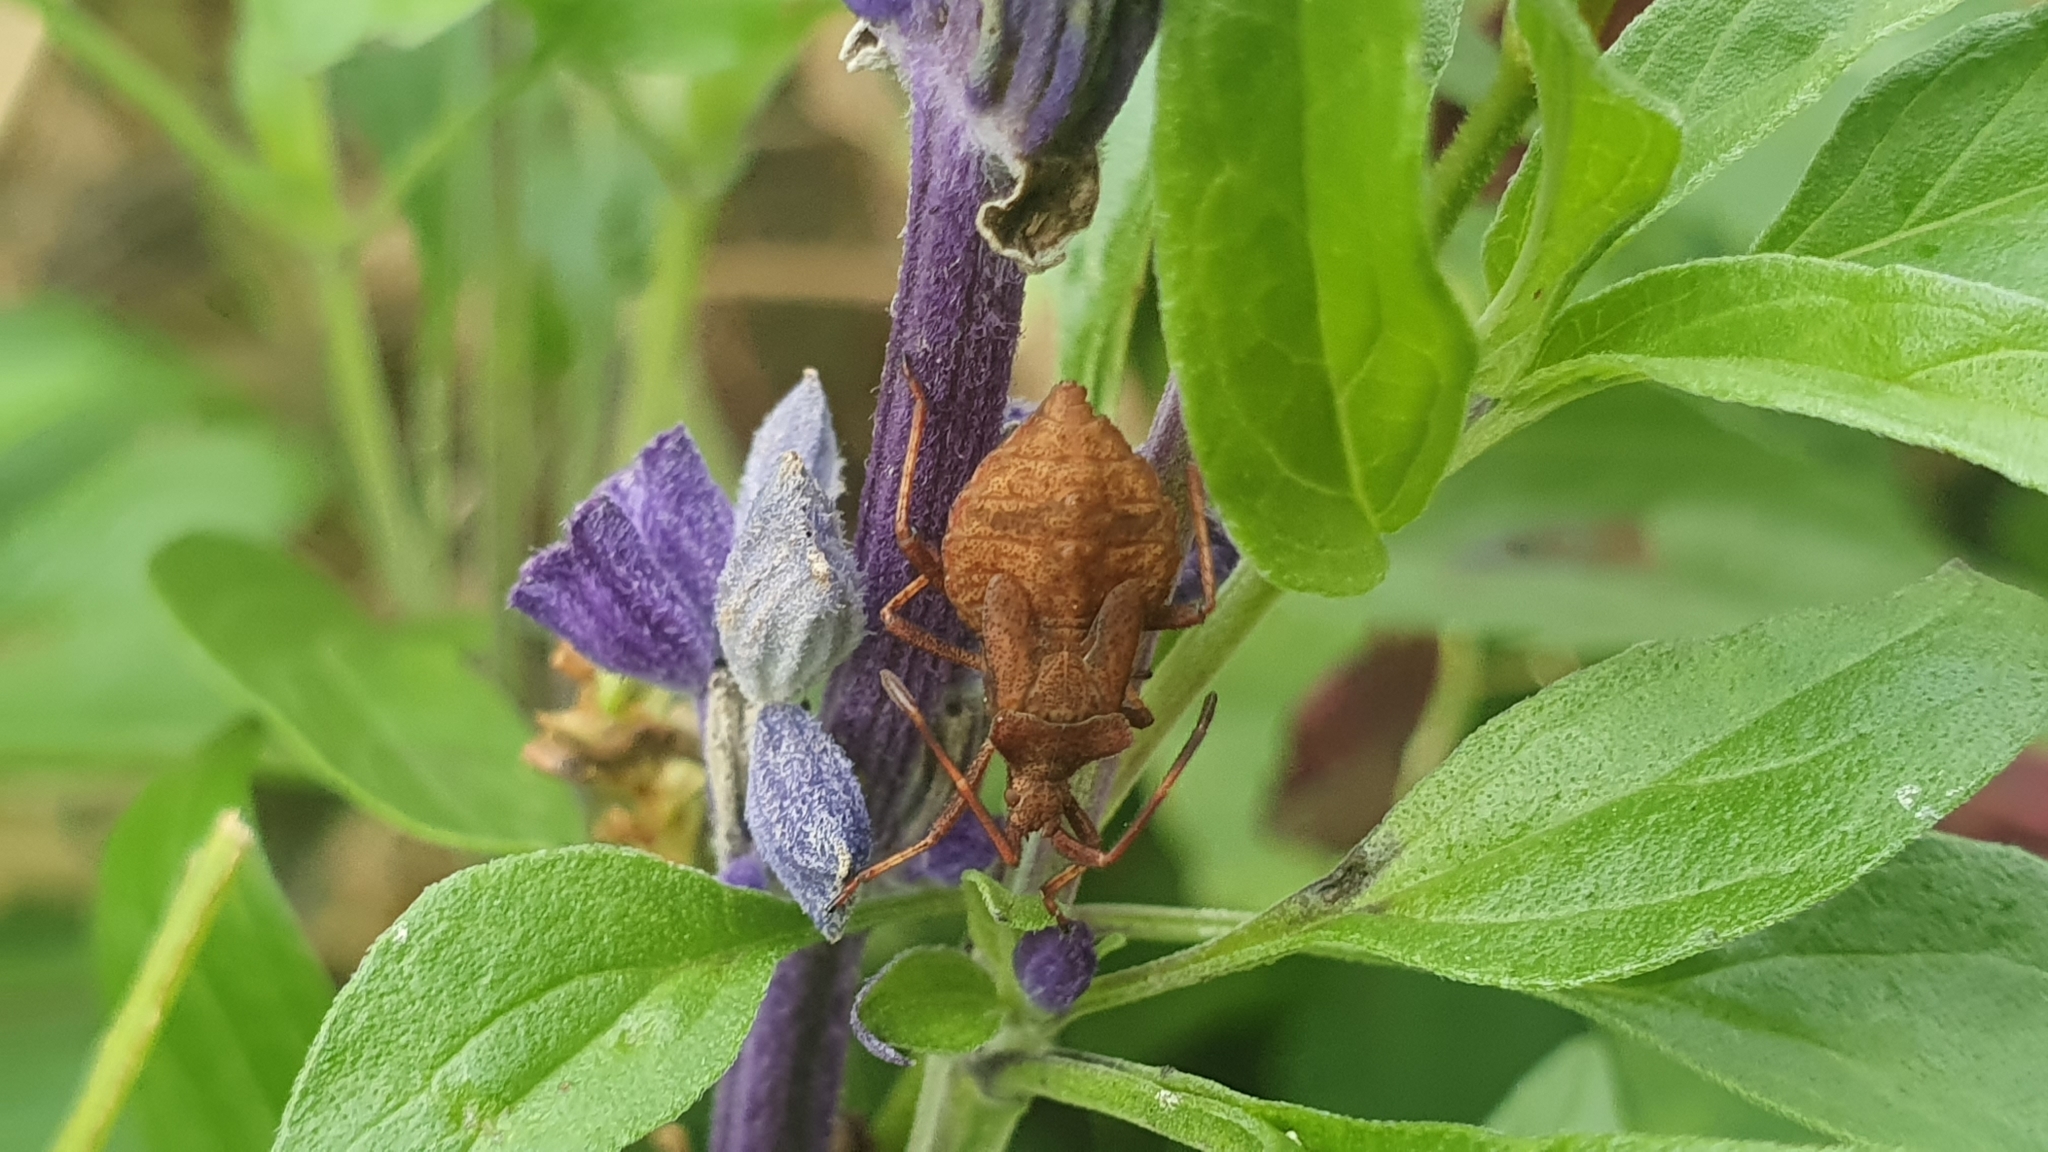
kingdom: Animalia
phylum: Arthropoda
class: Insecta
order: Hemiptera
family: Coreidae
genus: Coreus
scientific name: Coreus marginatus
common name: Dock bug
